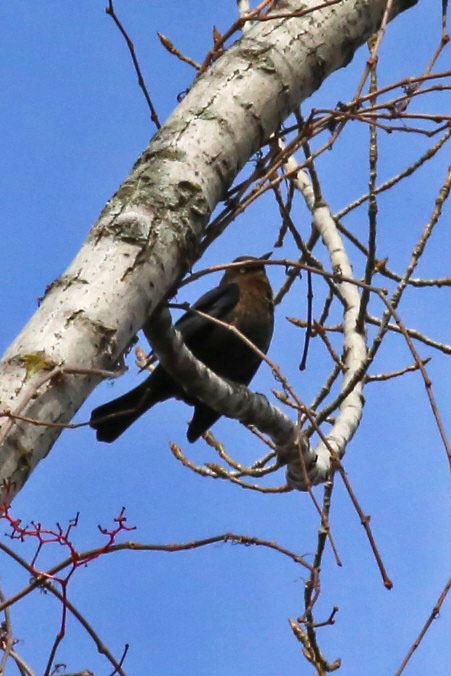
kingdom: Animalia
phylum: Chordata
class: Aves
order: Passeriformes
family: Icteridae
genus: Euphagus
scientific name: Euphagus carolinus
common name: Rusty blackbird
